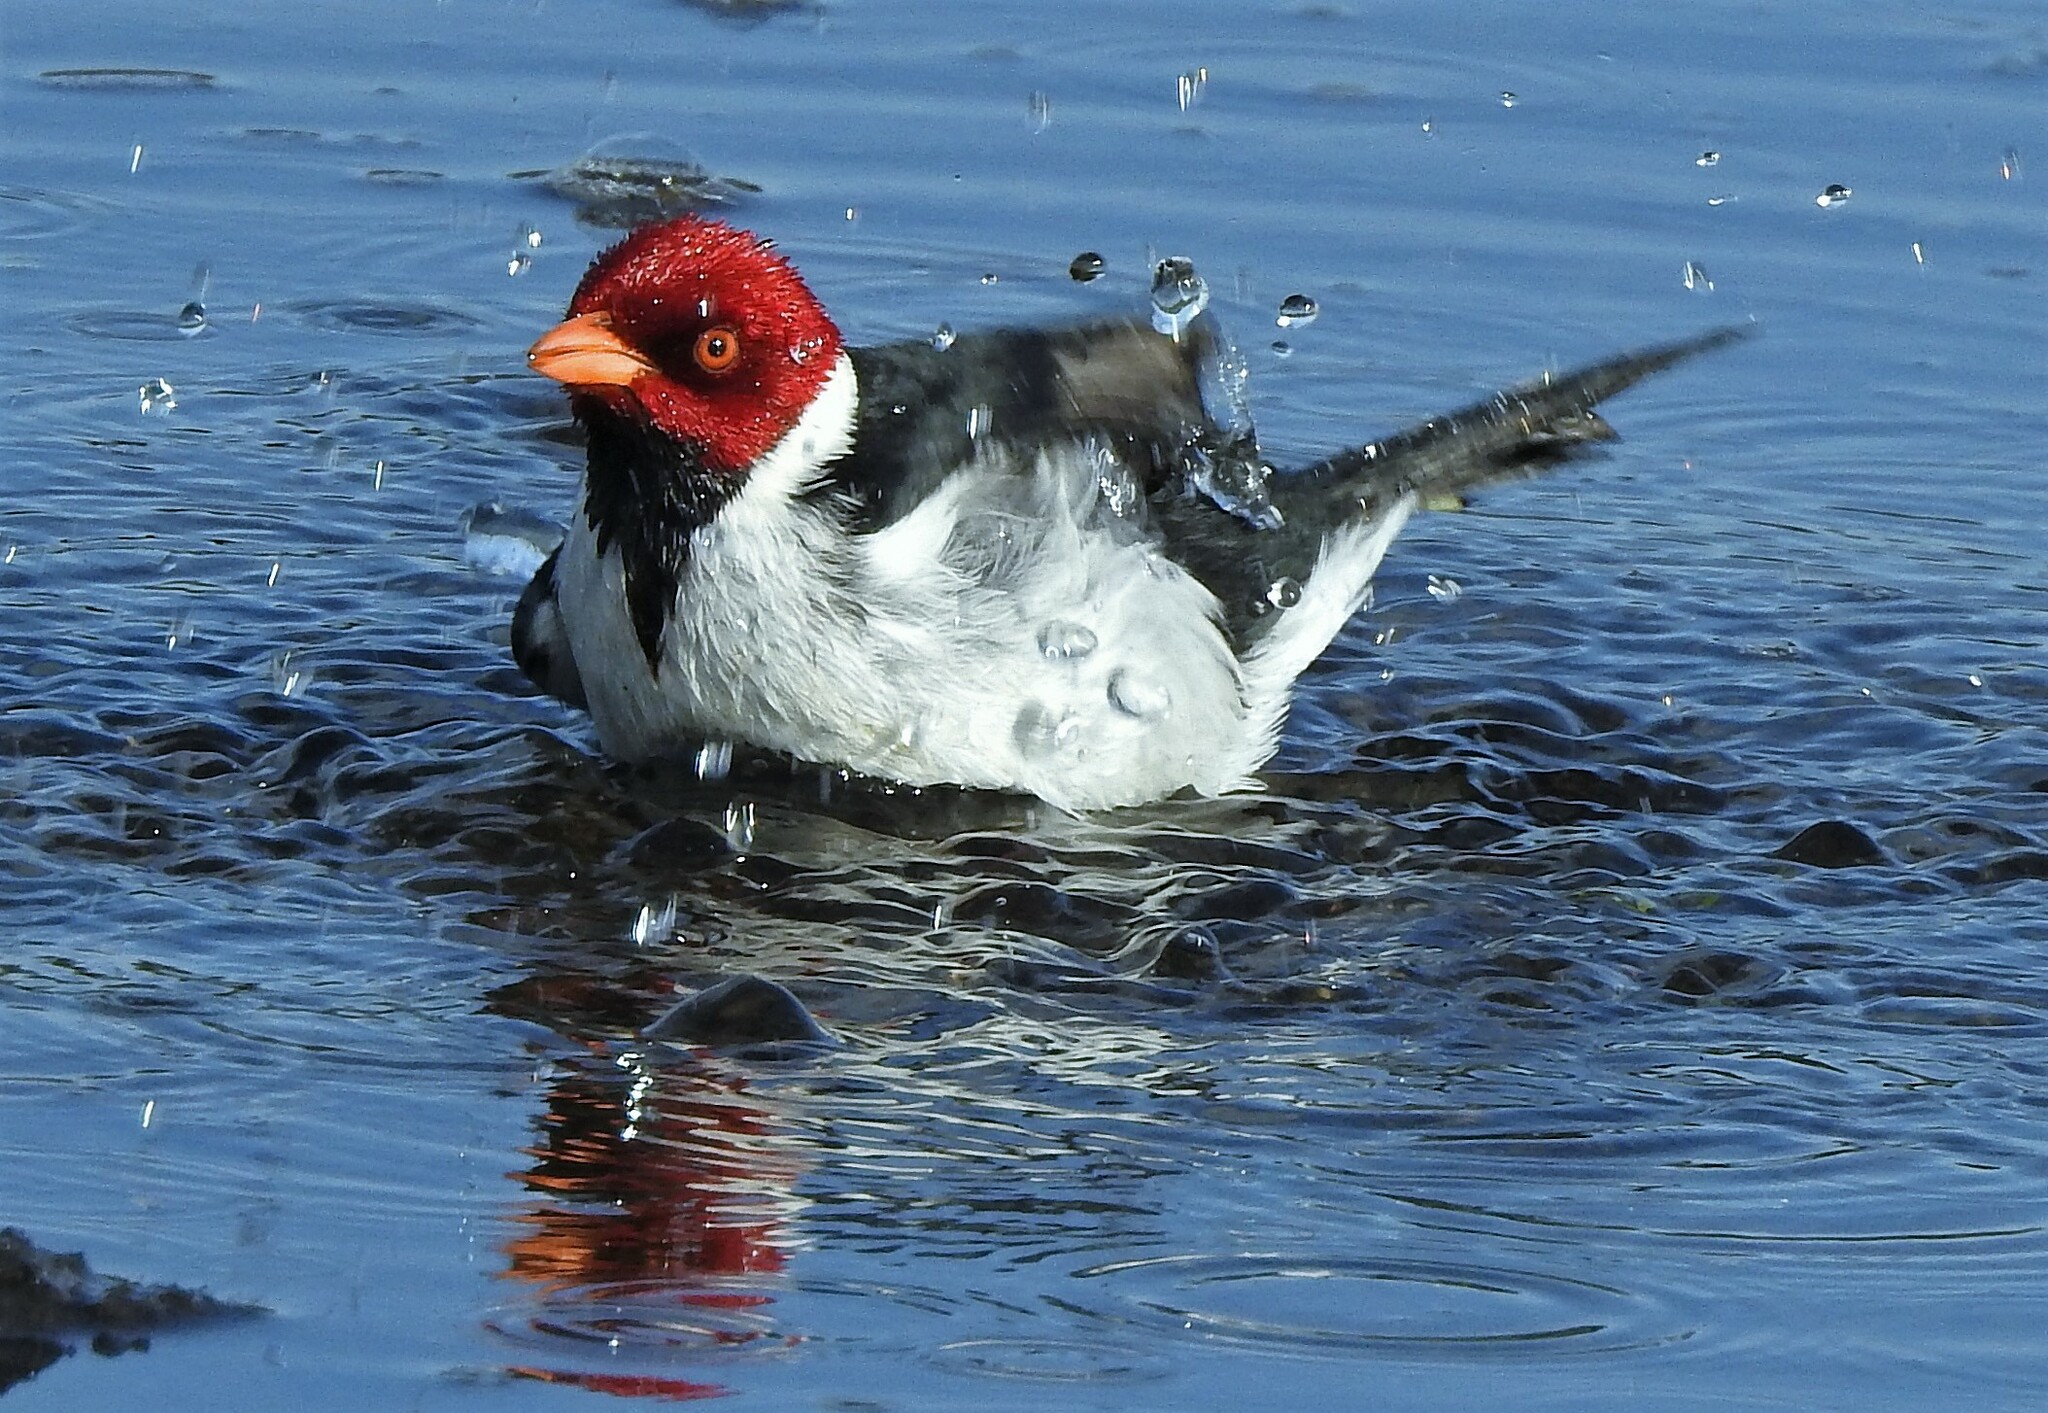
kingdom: Animalia
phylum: Chordata
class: Aves
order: Passeriformes
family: Thraupidae
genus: Paroaria
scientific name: Paroaria capitata
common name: Yellow-billed cardinal
